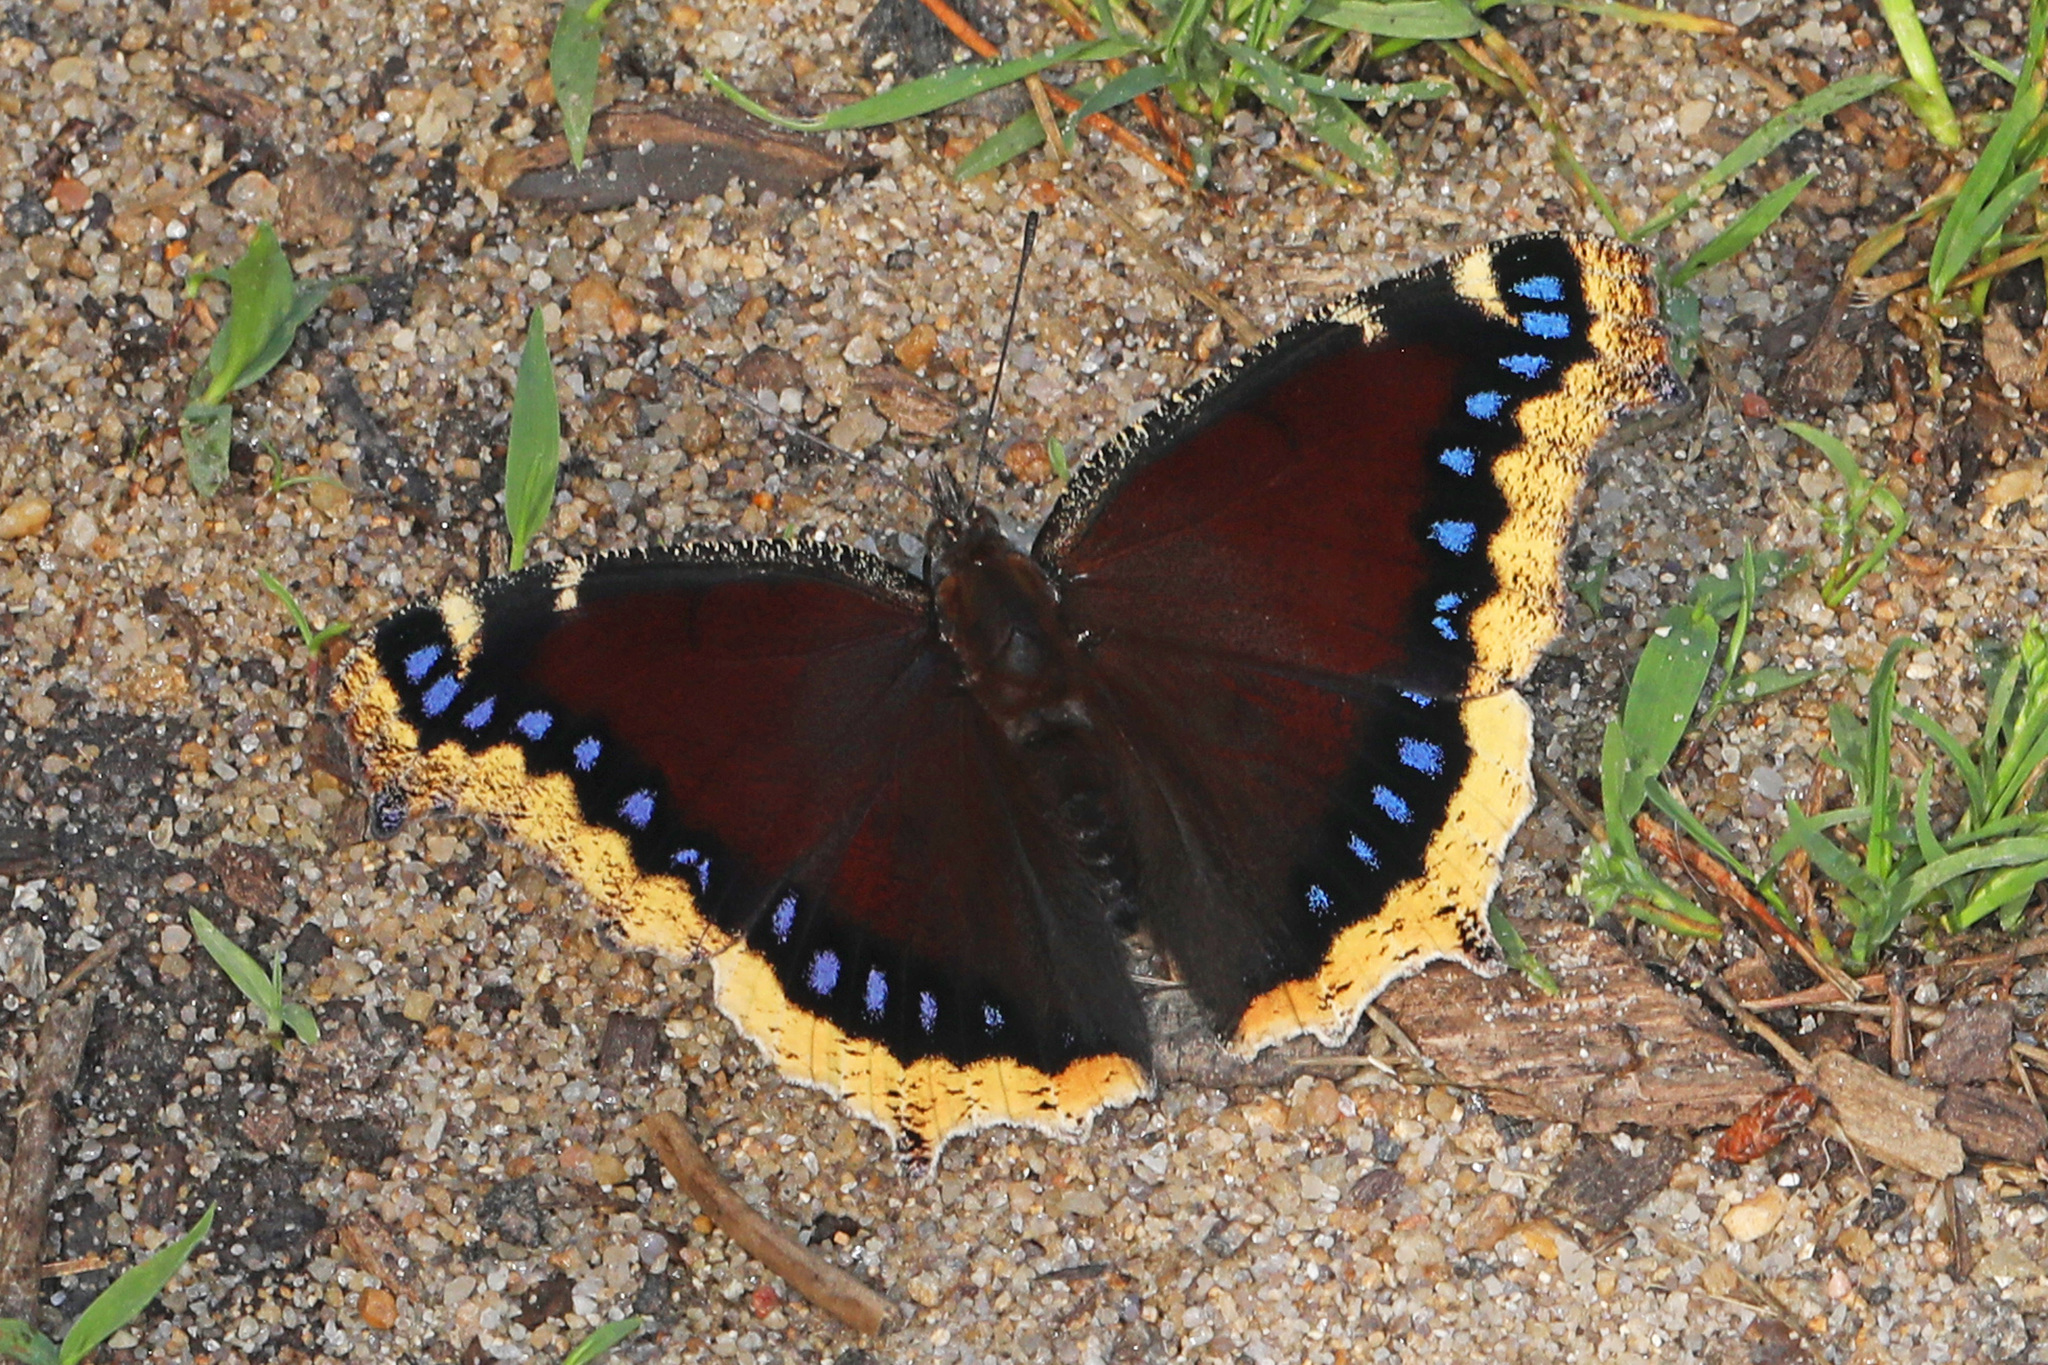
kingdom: Animalia
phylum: Arthropoda
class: Insecta
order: Lepidoptera
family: Nymphalidae
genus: Nymphalis
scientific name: Nymphalis antiopa
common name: Camberwell beauty
